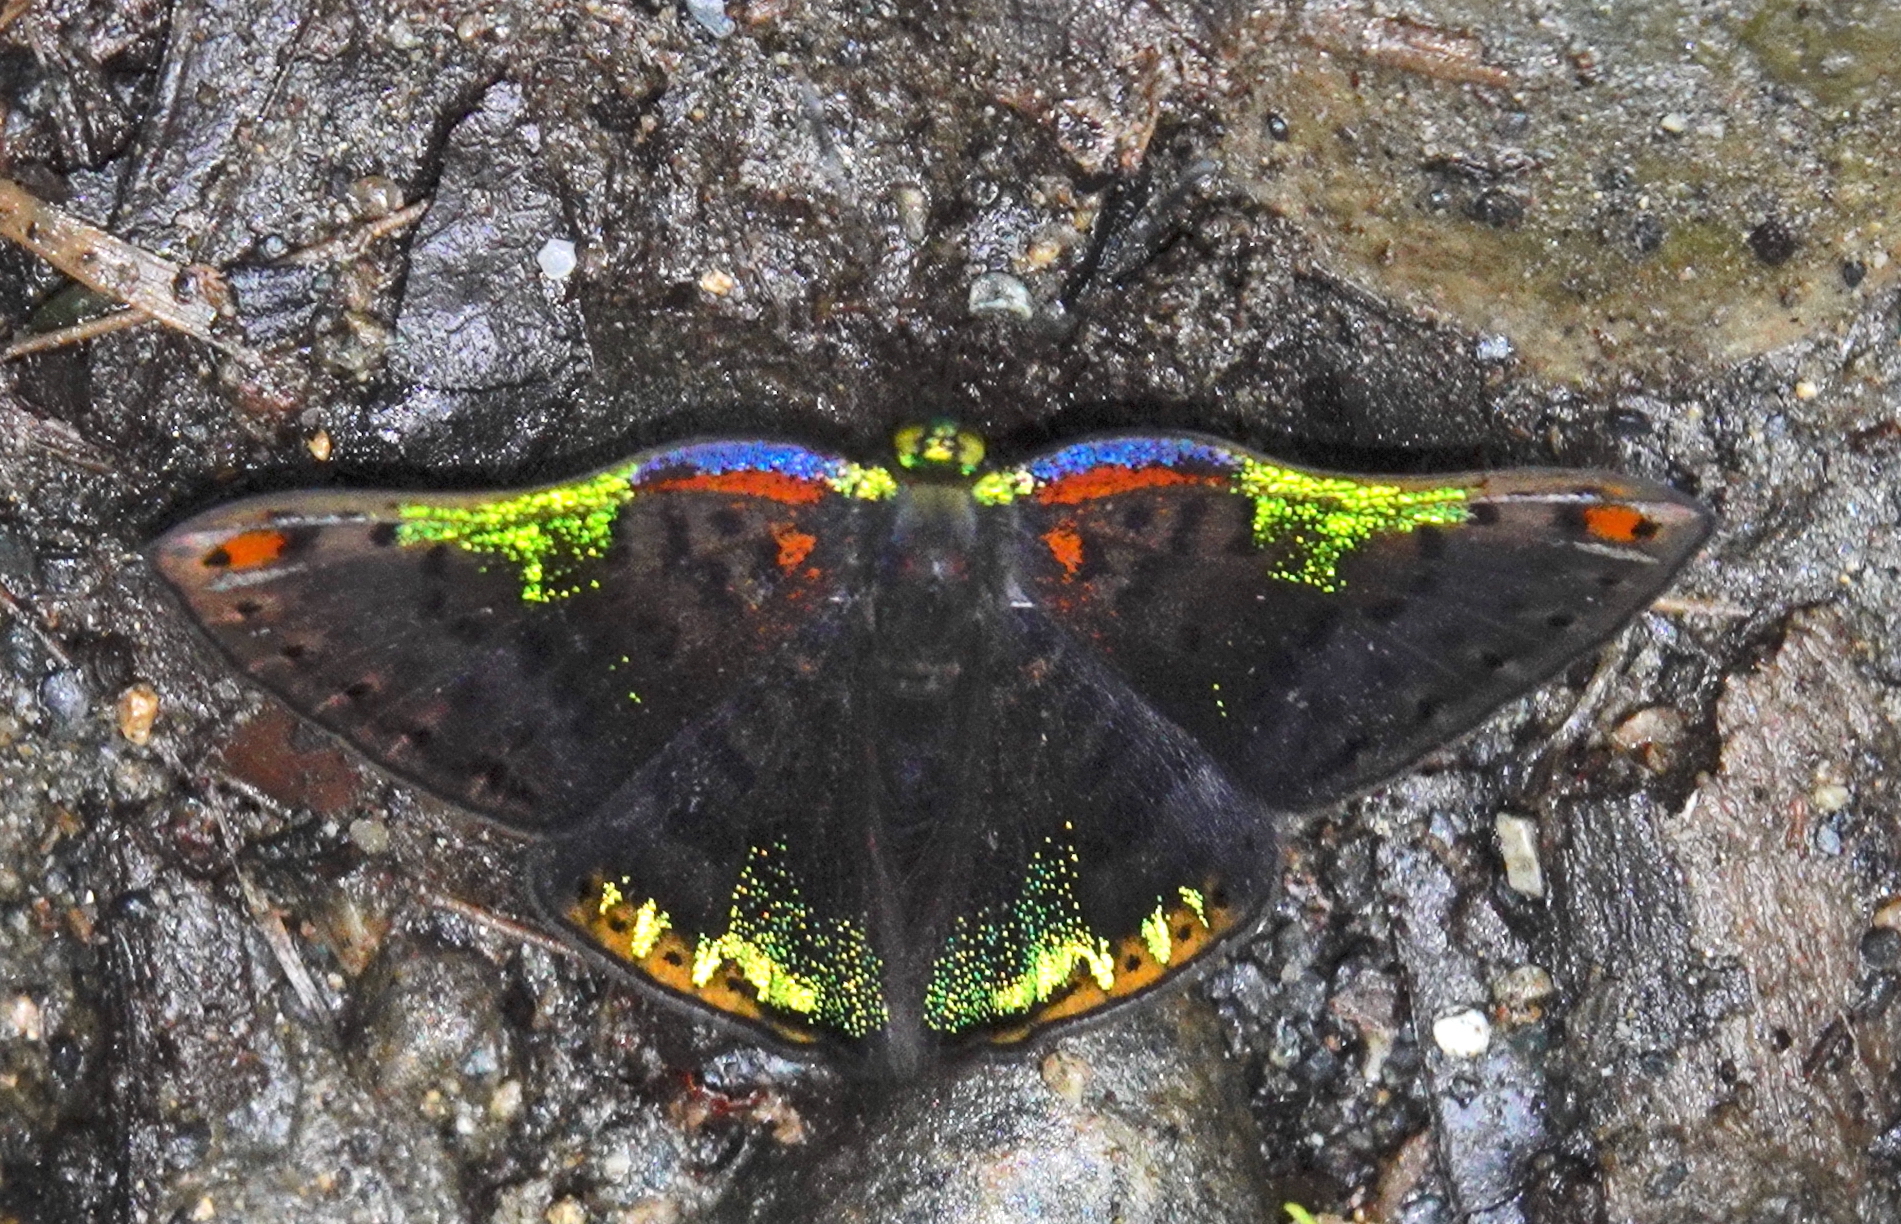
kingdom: Animalia
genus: Caria
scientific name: Caria trochilus
